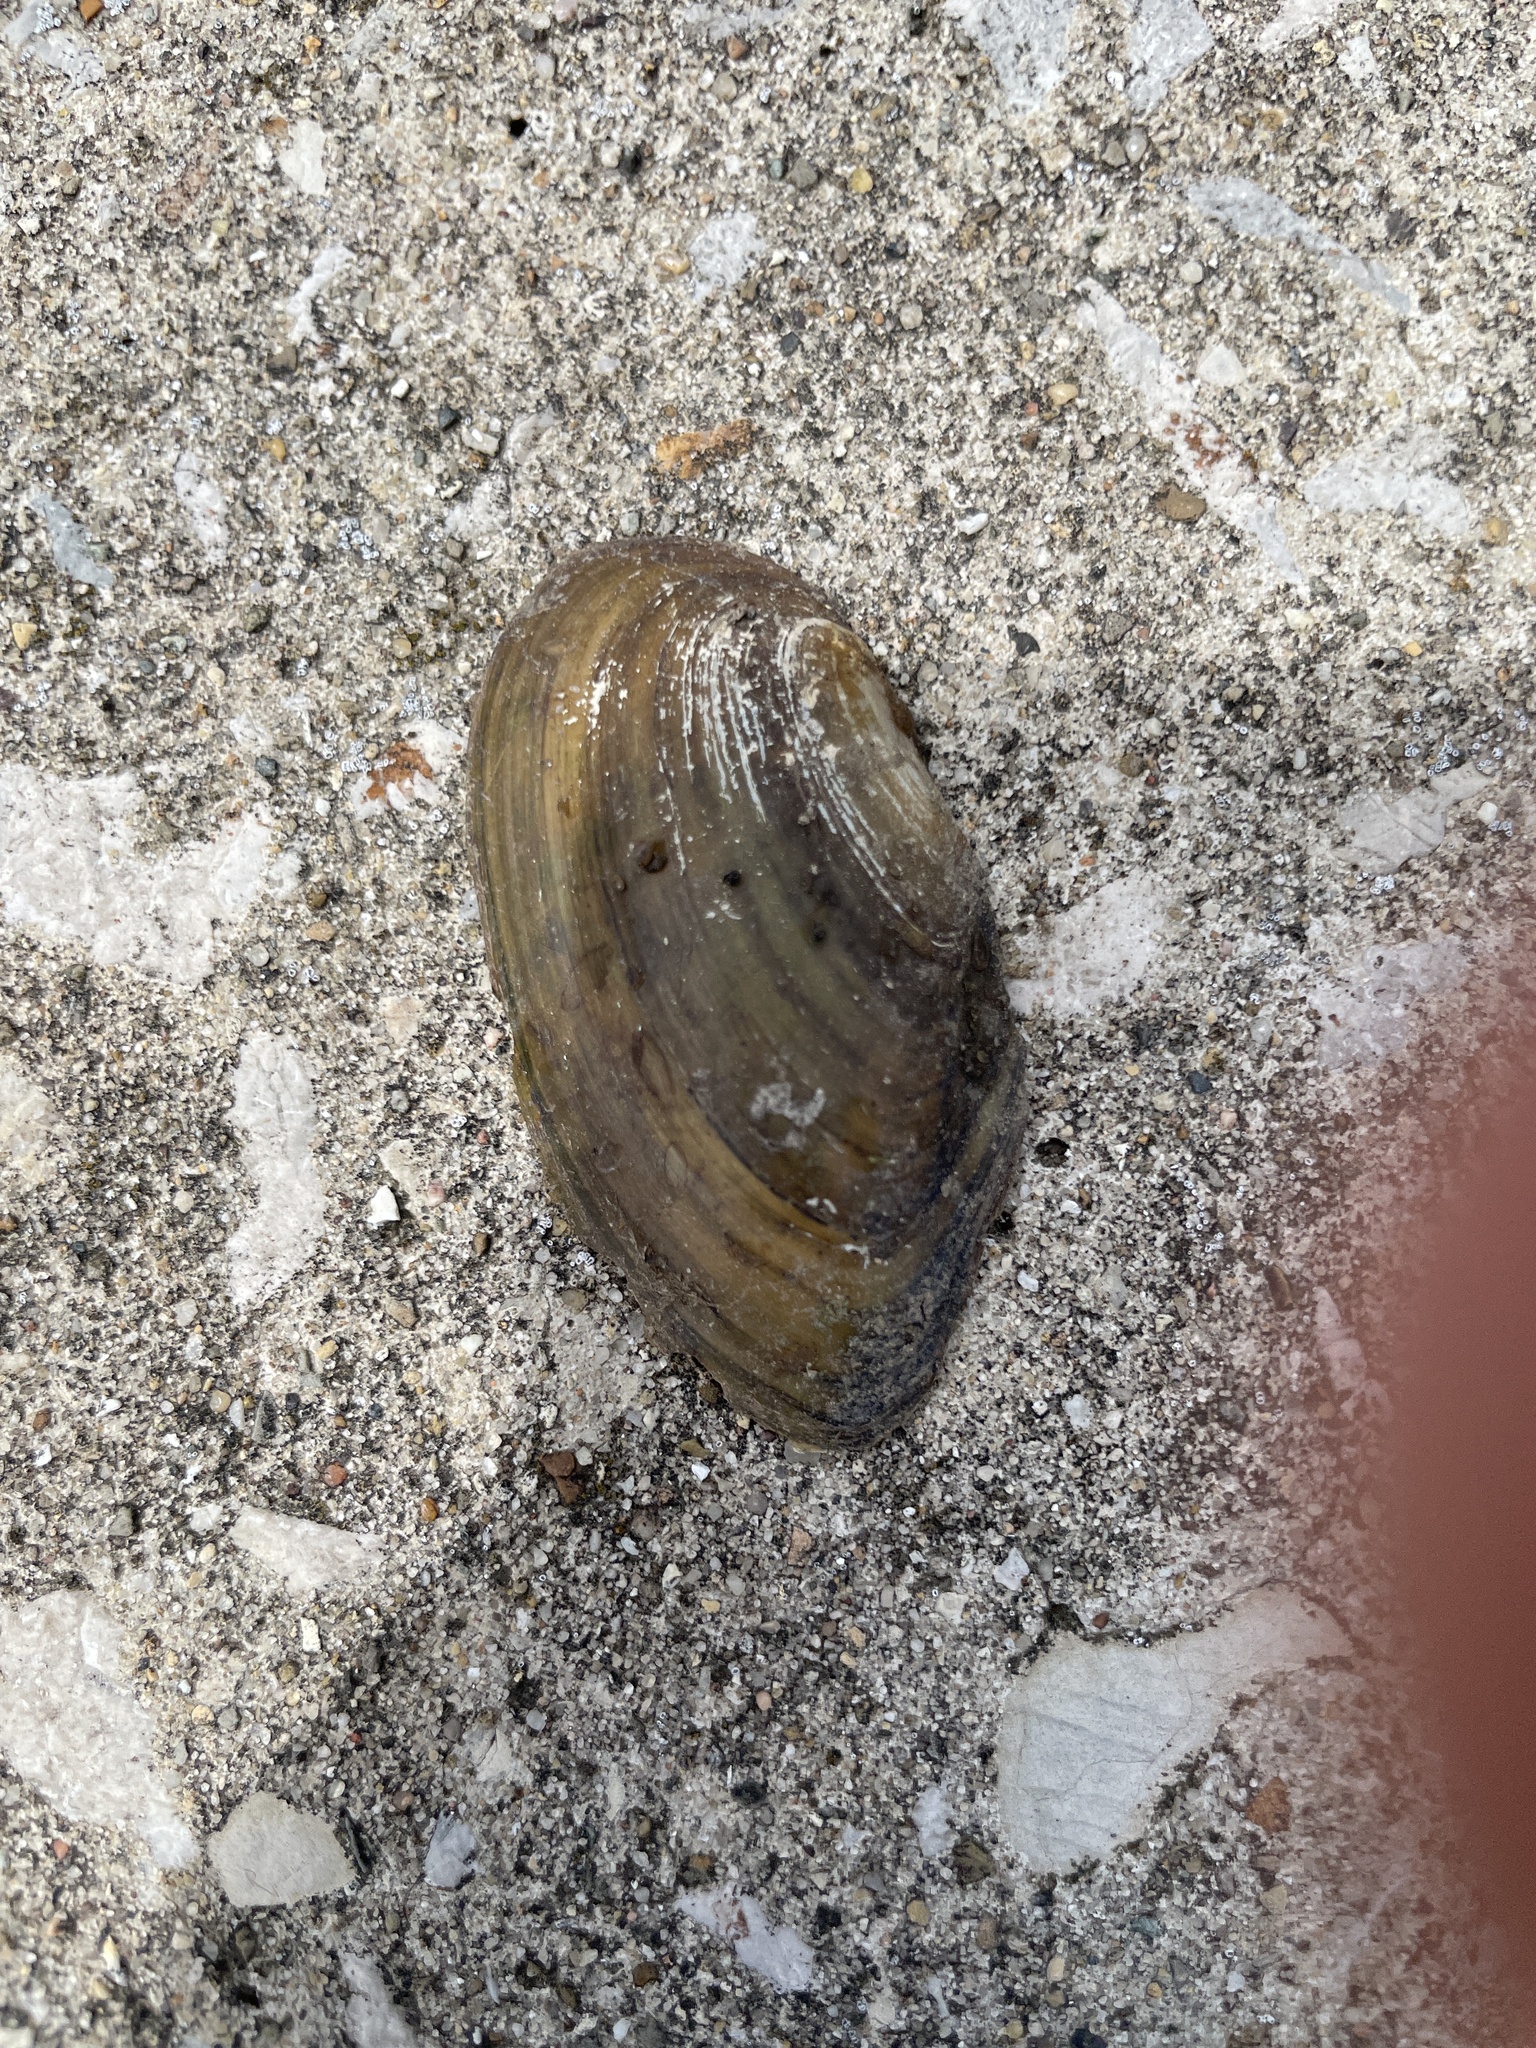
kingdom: Animalia
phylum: Mollusca
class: Bivalvia
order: Unionida
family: Unionidae
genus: Utterbackia
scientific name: Utterbackia imbecillis
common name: Paper pondshell
